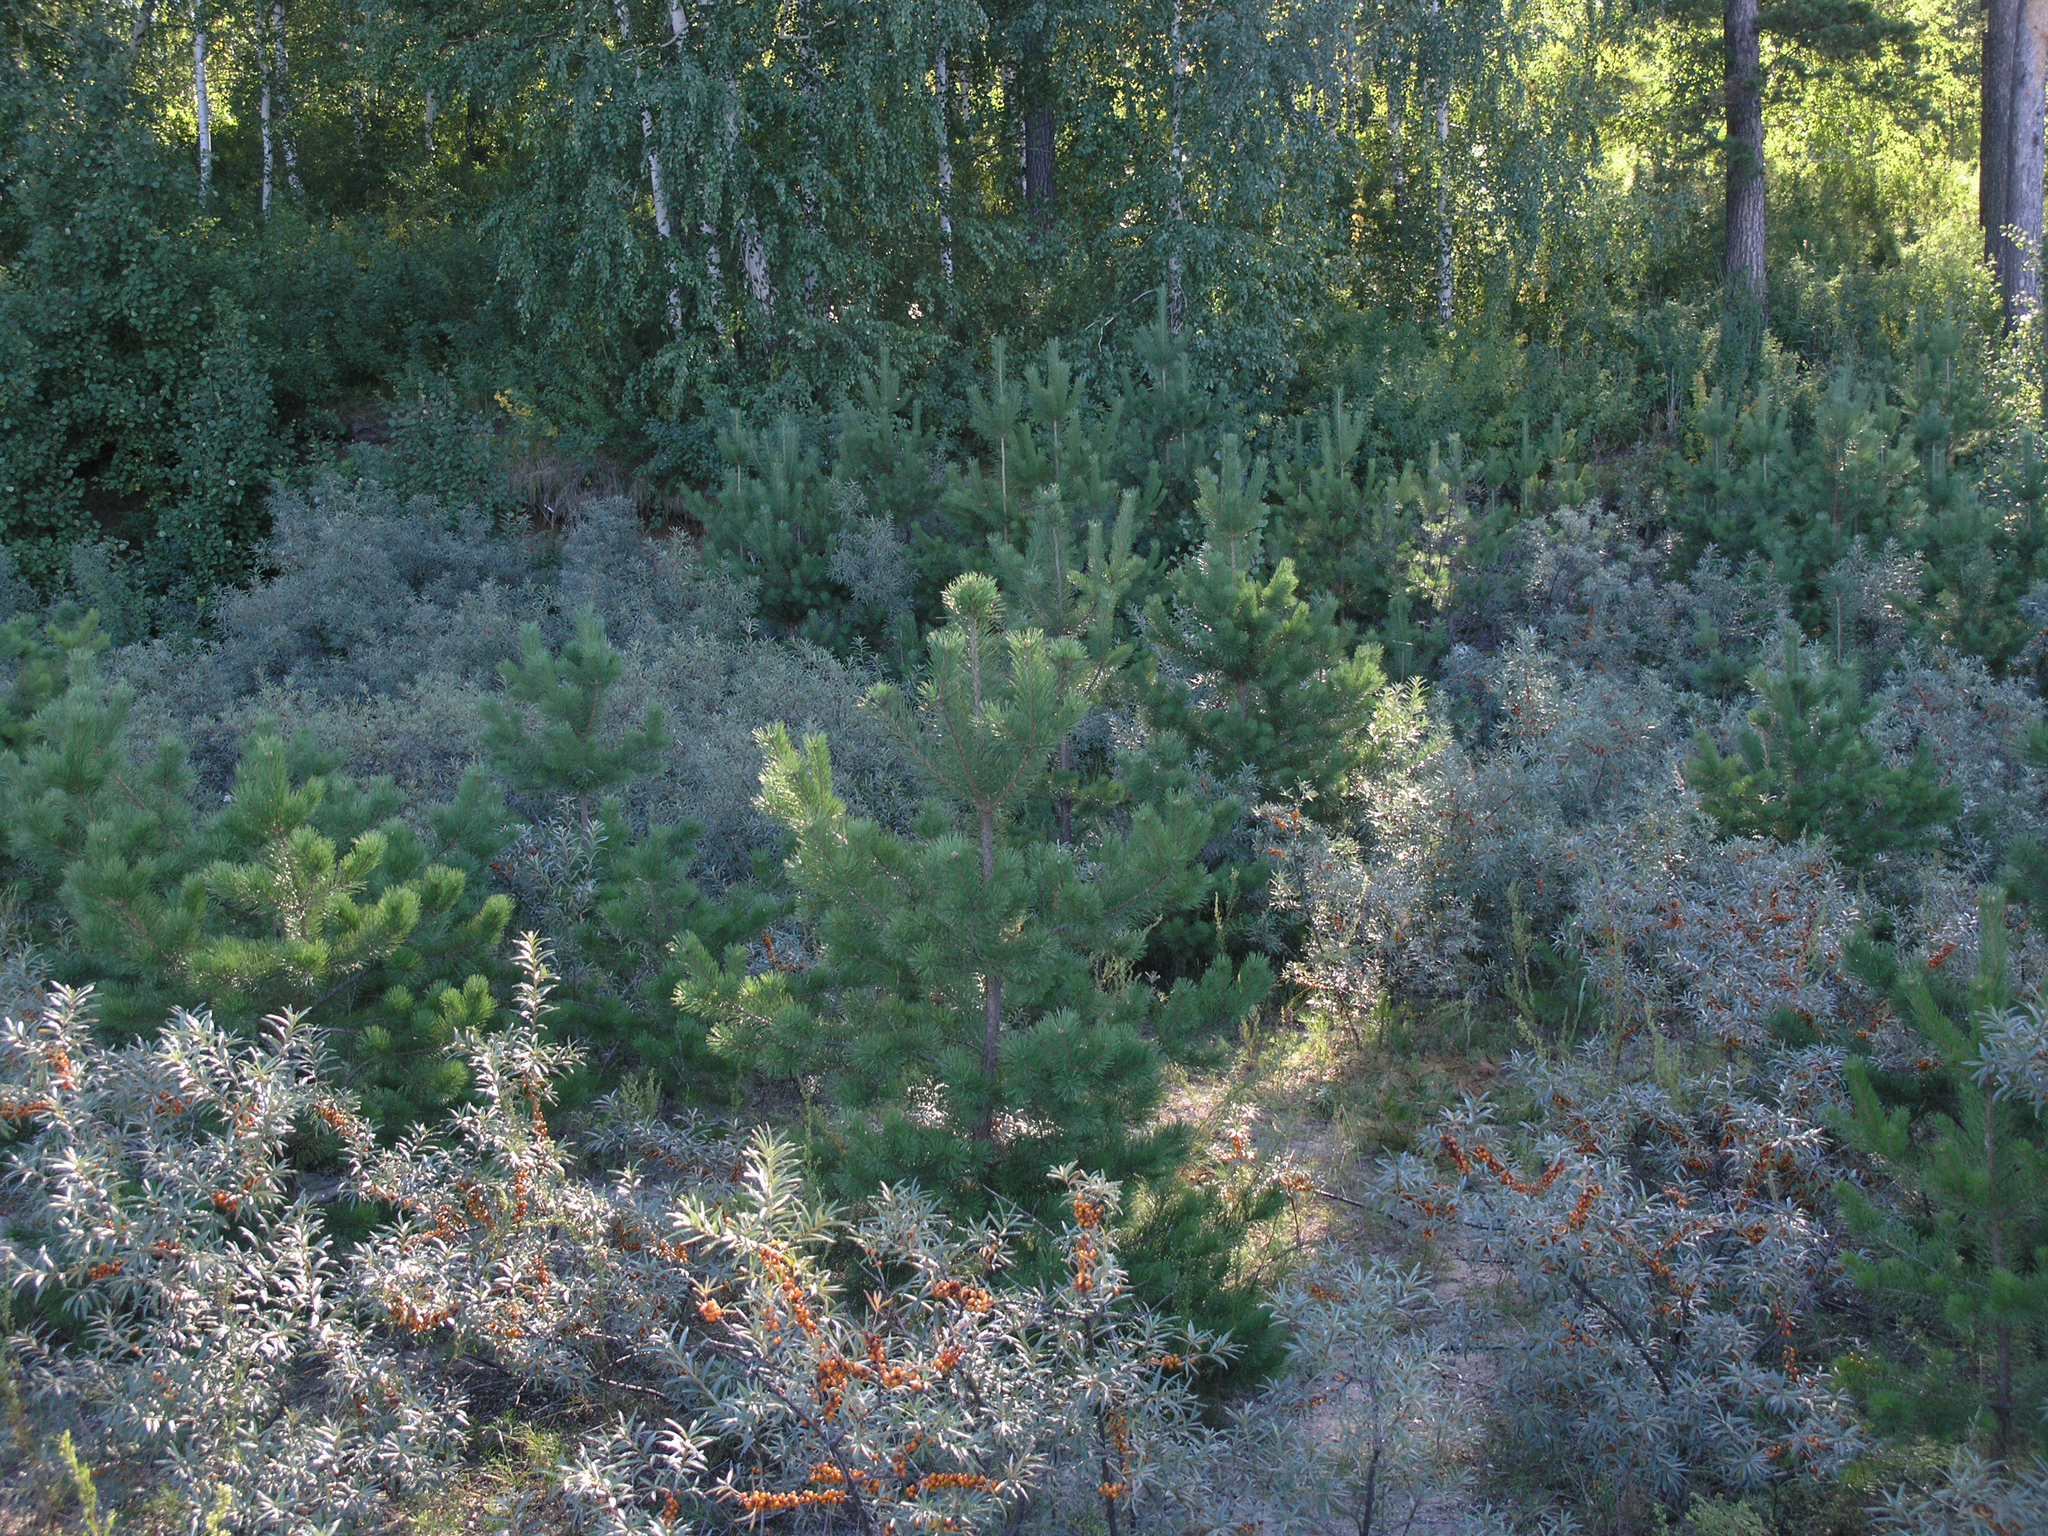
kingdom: Plantae
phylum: Tracheophyta
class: Magnoliopsida
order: Rosales
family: Elaeagnaceae
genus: Hippophae
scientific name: Hippophae rhamnoides
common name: Sea-buckthorn
